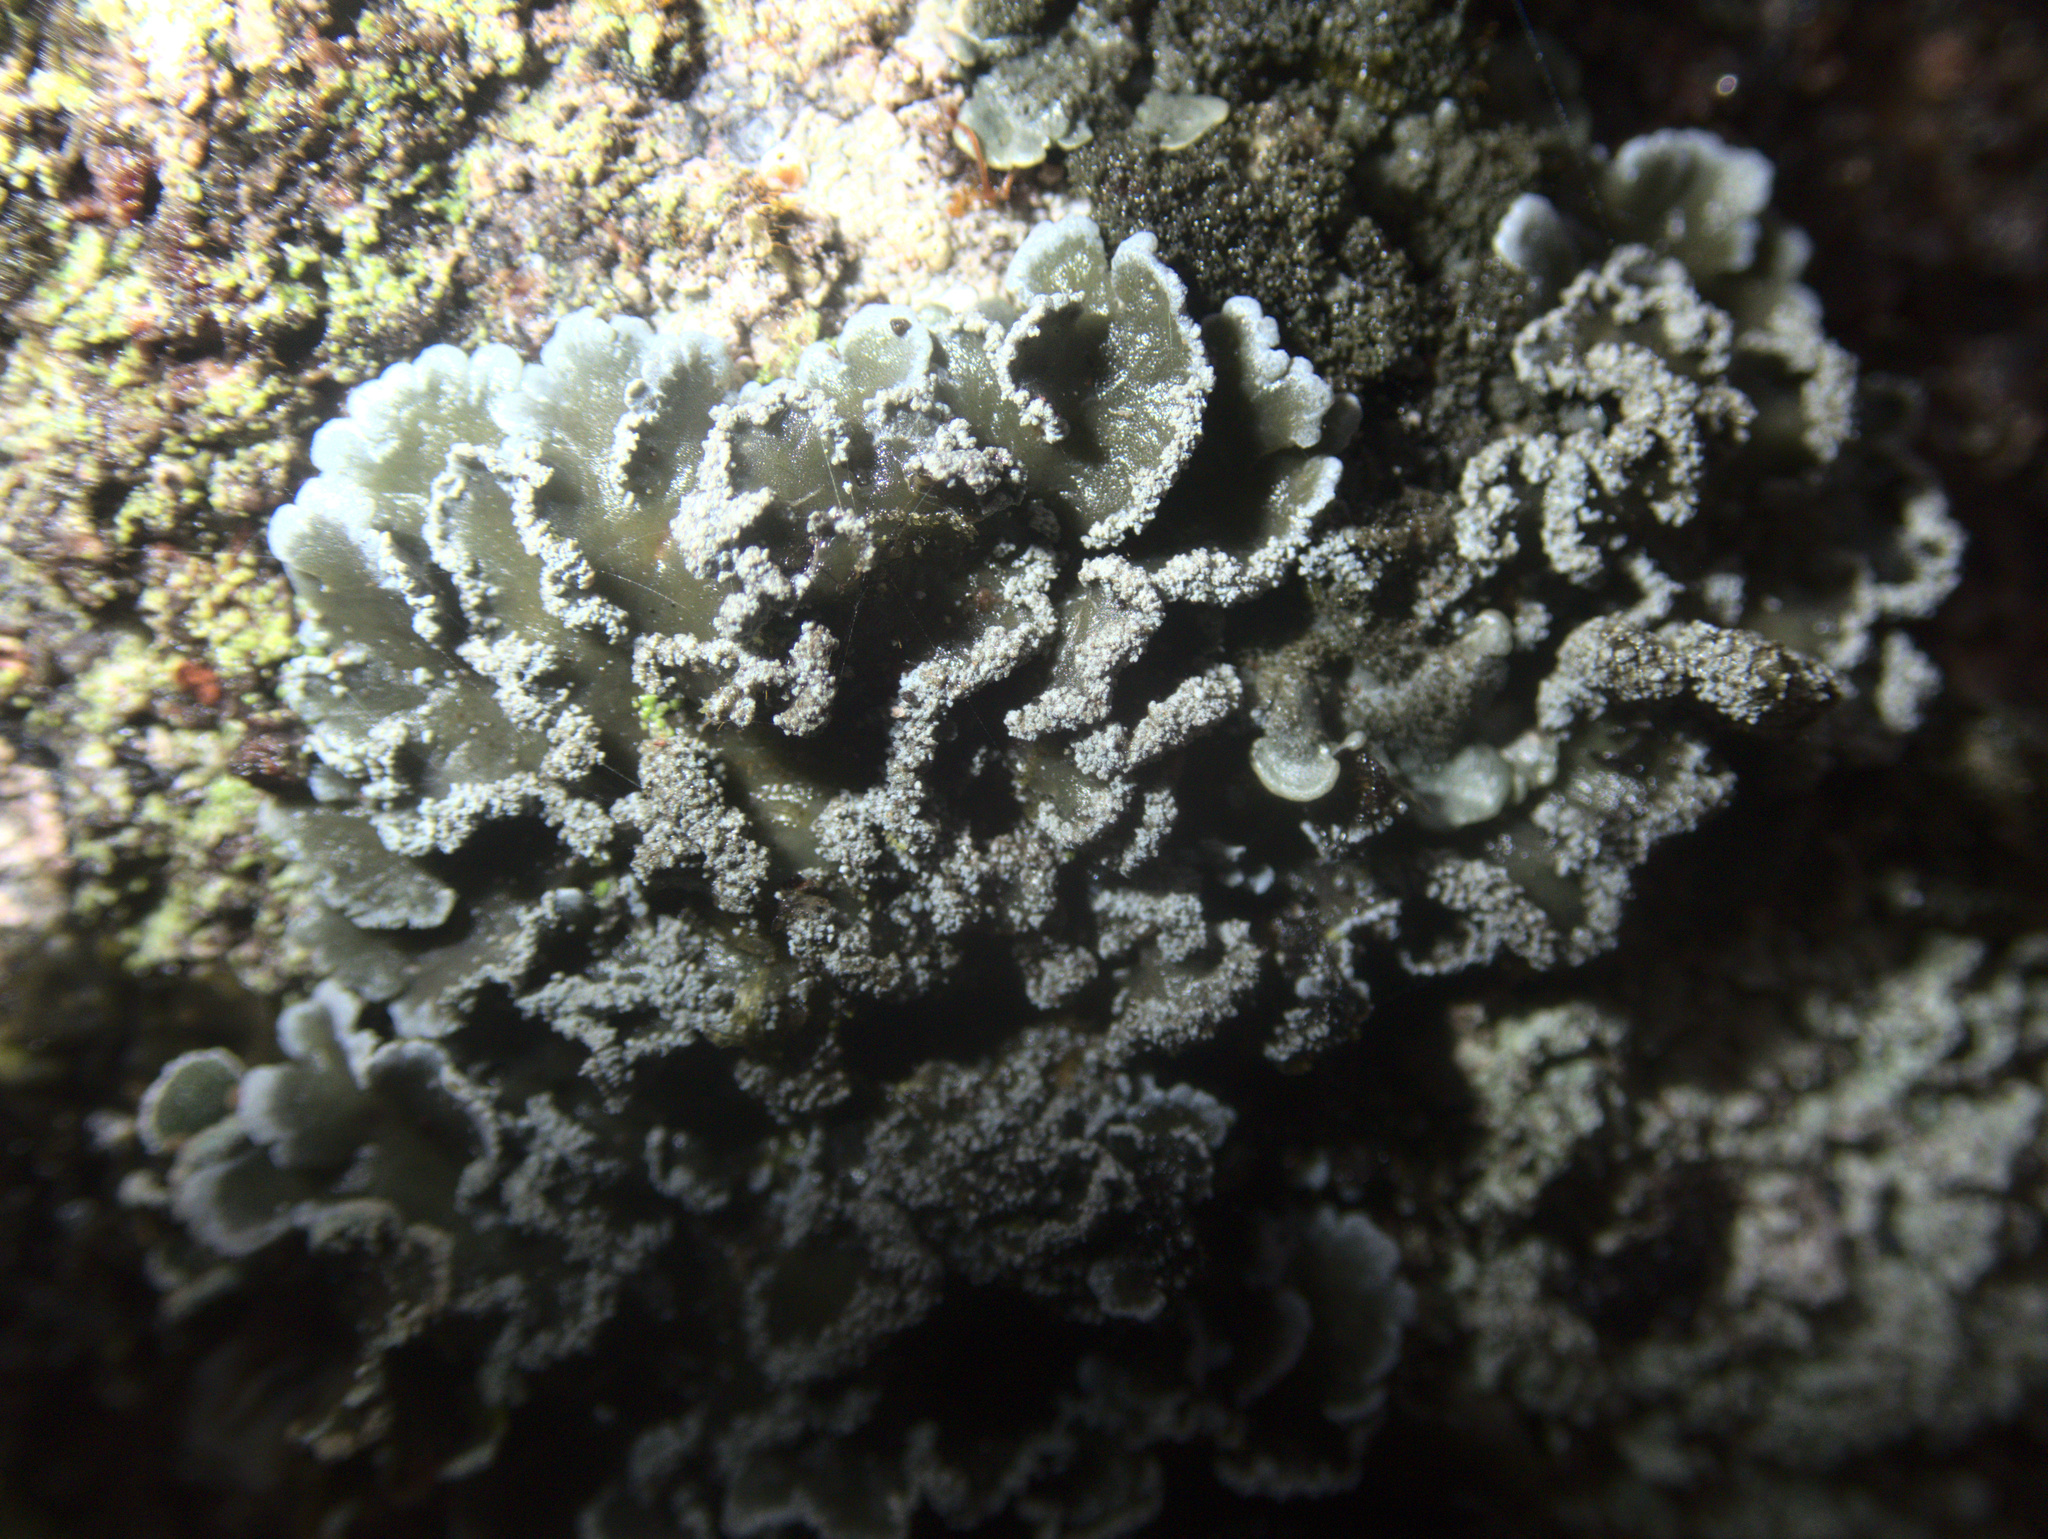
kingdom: Fungi
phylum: Ascomycota
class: Lecanoromycetes
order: Peltigerales
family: Pannariaceae
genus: Pannaria
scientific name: Pannaria fulvescens
